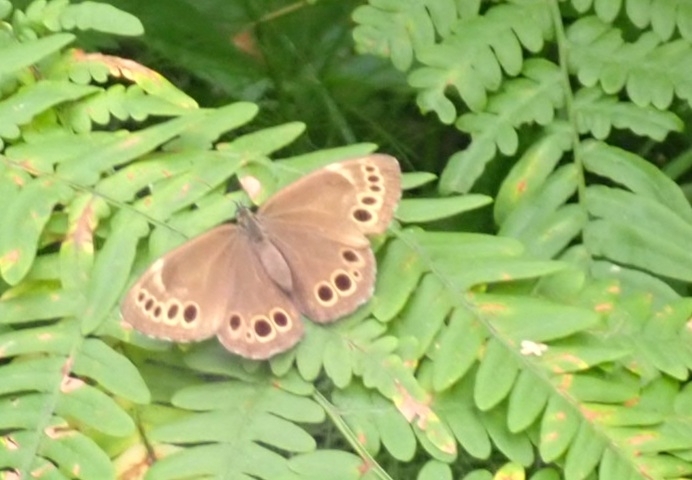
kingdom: Animalia
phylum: Arthropoda
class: Insecta
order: Lepidoptera
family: Nymphalidae
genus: Pararge
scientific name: Pararge Lopinga achine
